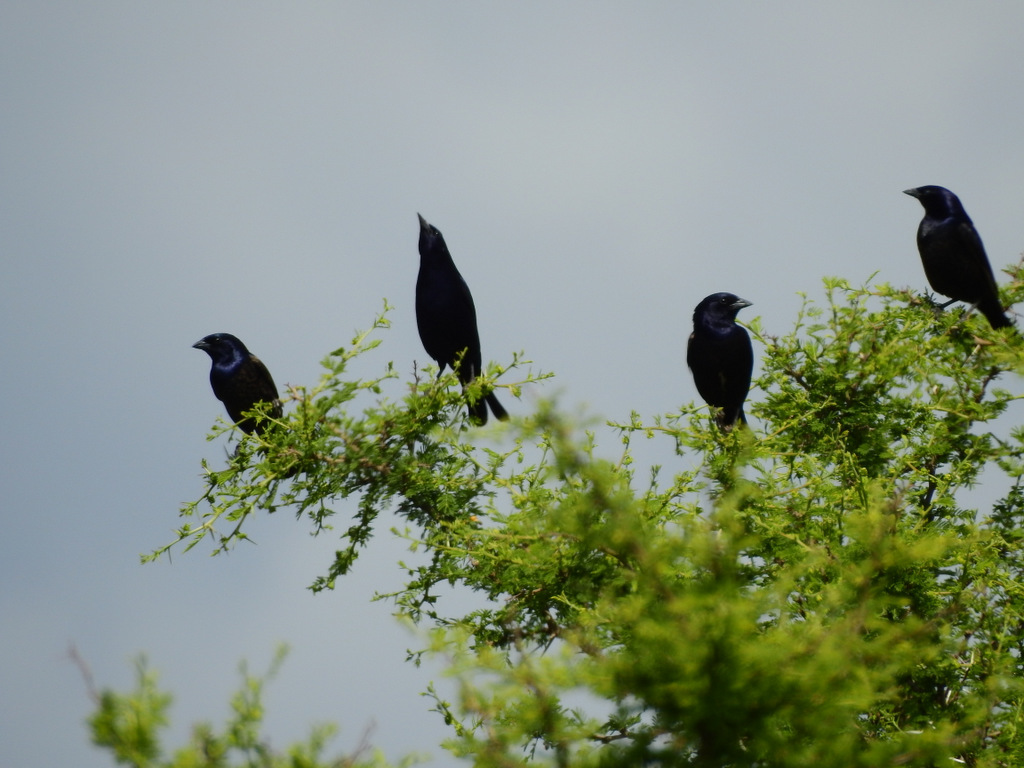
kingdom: Animalia
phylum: Chordata
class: Aves
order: Passeriformes
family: Icteridae
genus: Molothrus
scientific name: Molothrus bonariensis
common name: Shiny cowbird
